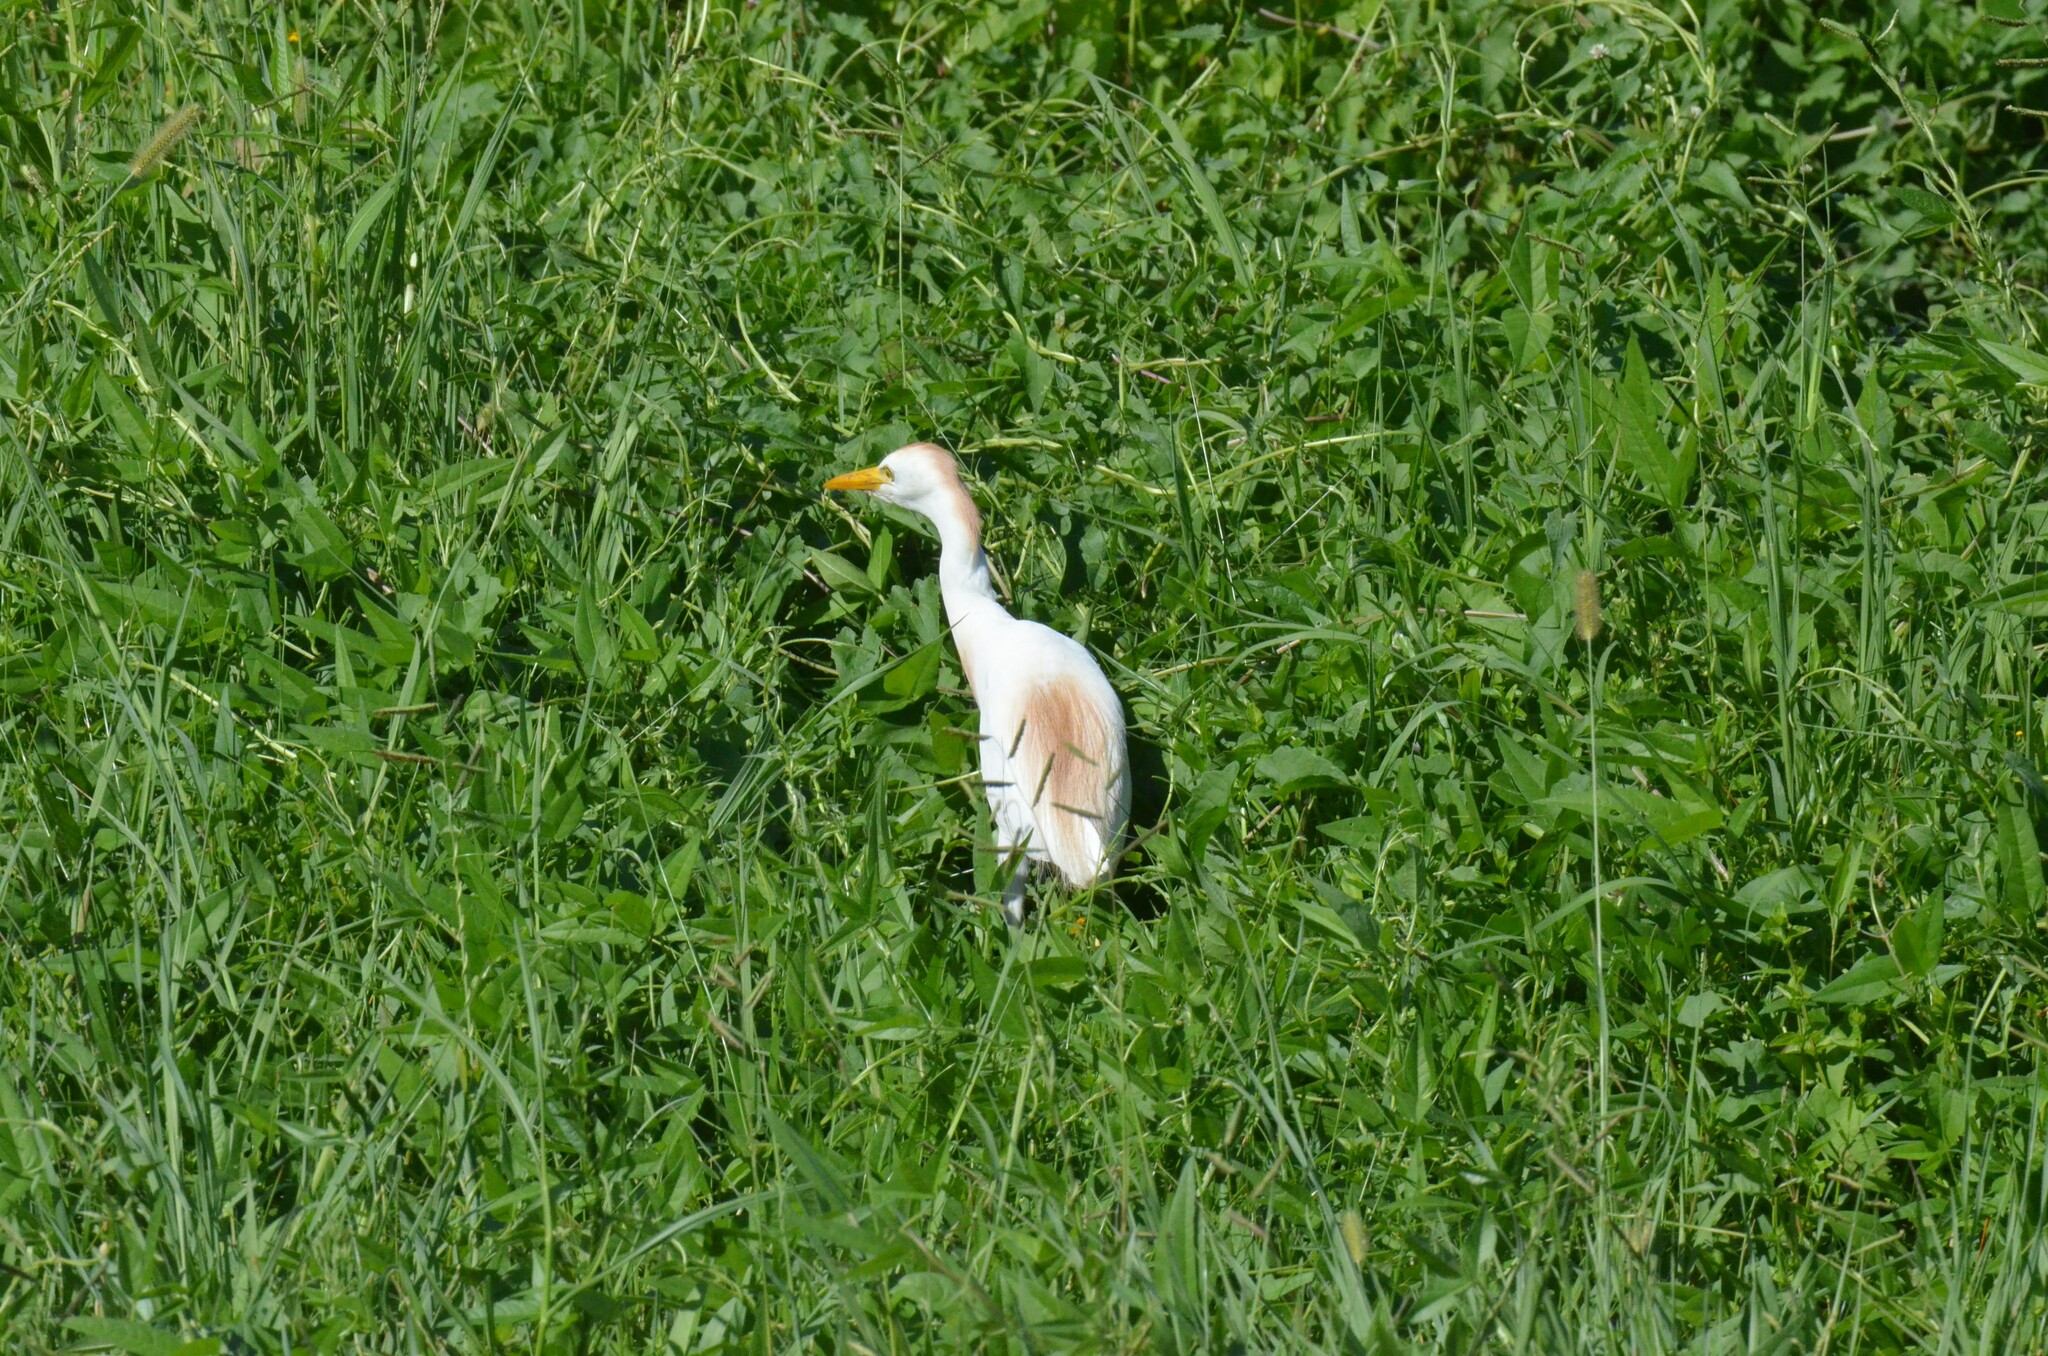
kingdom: Animalia
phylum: Chordata
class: Aves
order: Pelecaniformes
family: Ardeidae
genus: Bubulcus
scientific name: Bubulcus ibis
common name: Cattle egret
